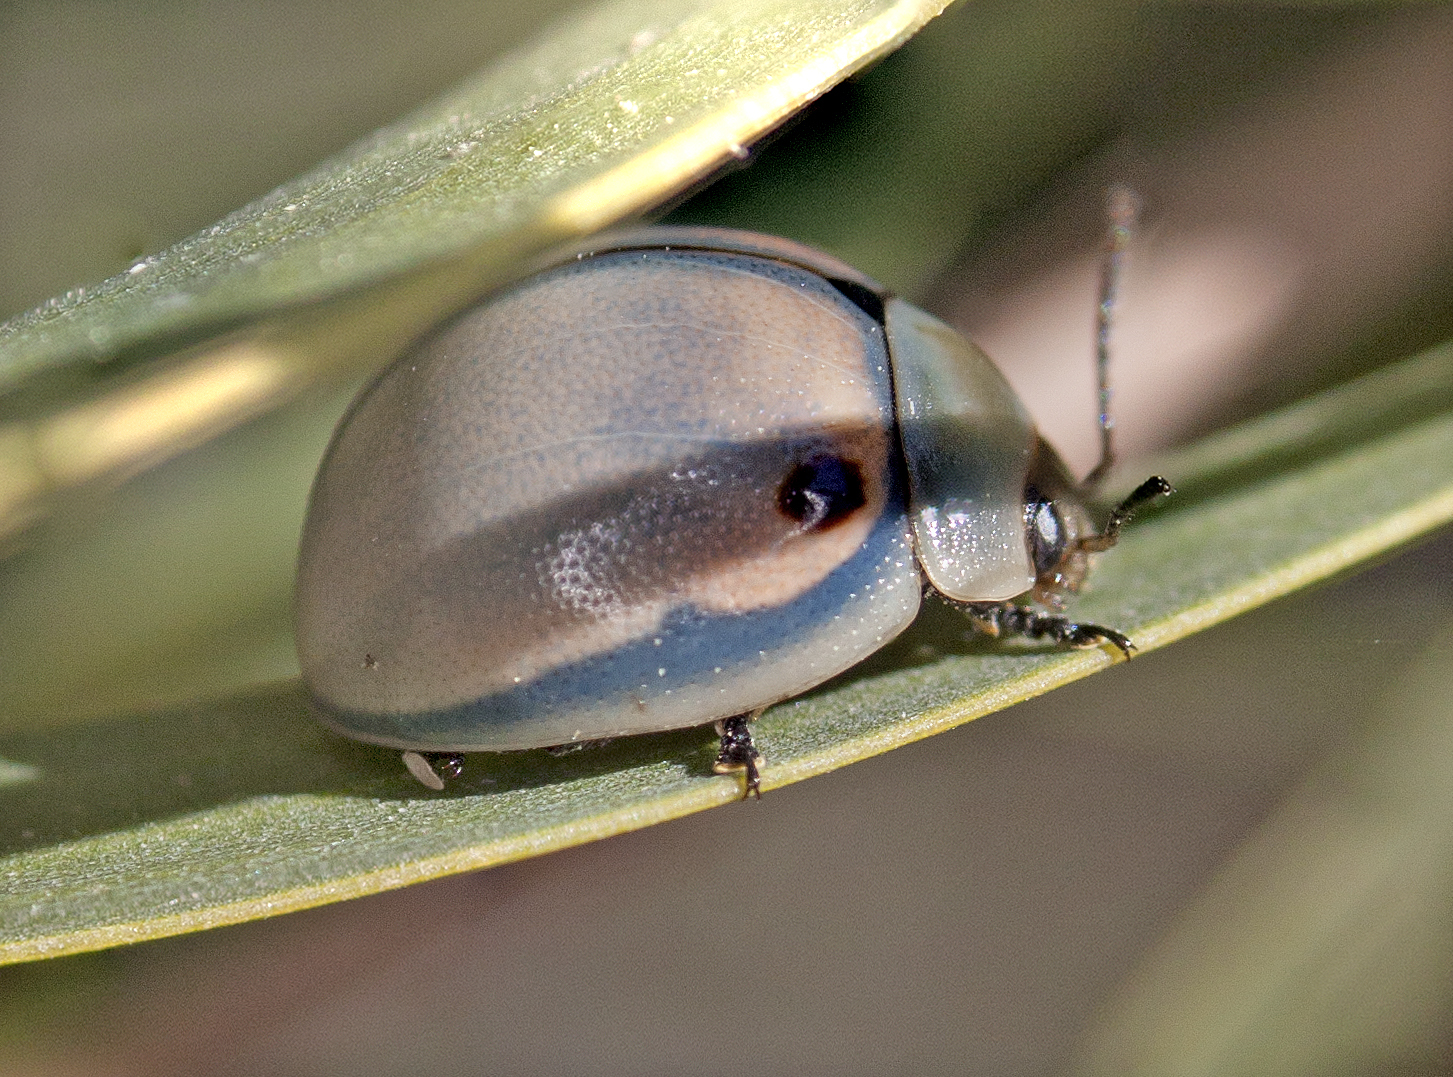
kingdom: Animalia
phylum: Arthropoda
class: Insecta
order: Coleoptera
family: Chrysomelidae
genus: Dicranosterna
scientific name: Dicranosterna
